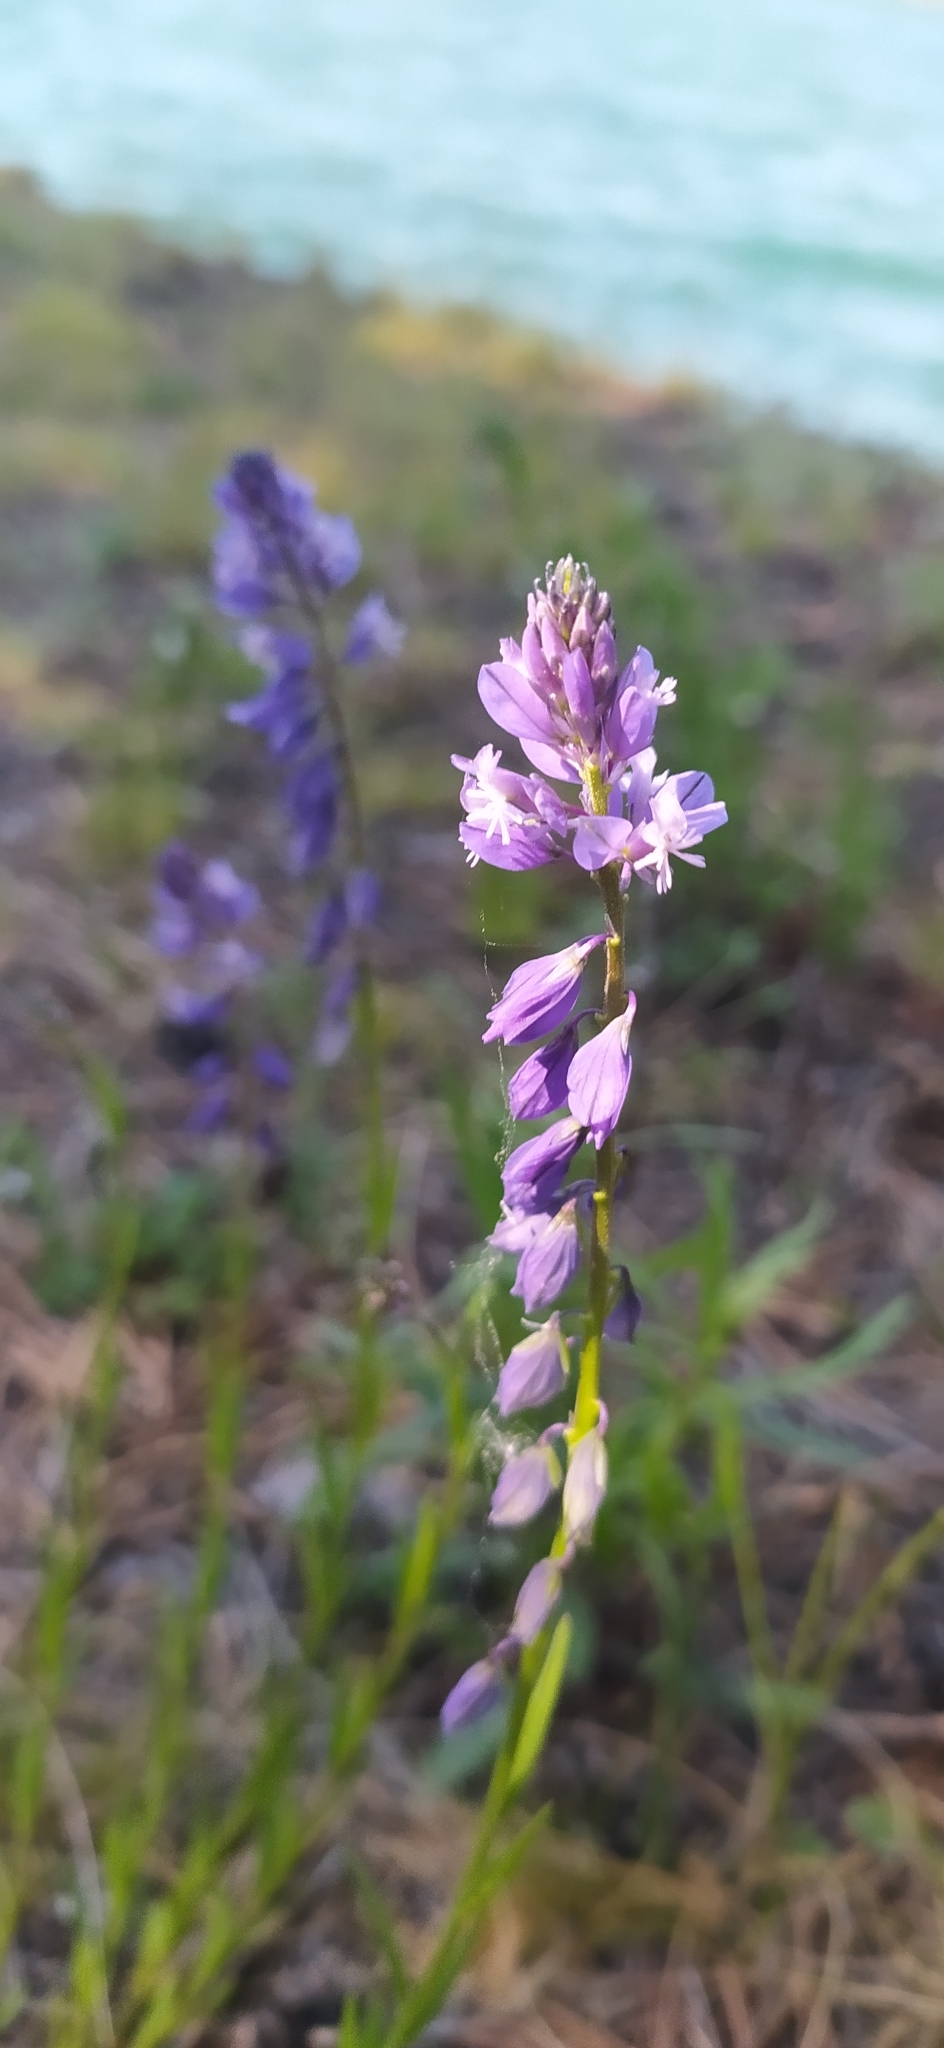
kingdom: Plantae
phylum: Tracheophyta
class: Magnoliopsida
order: Fabales
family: Polygalaceae
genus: Polygala
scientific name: Polygala comosa
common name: Tufted milkwort
